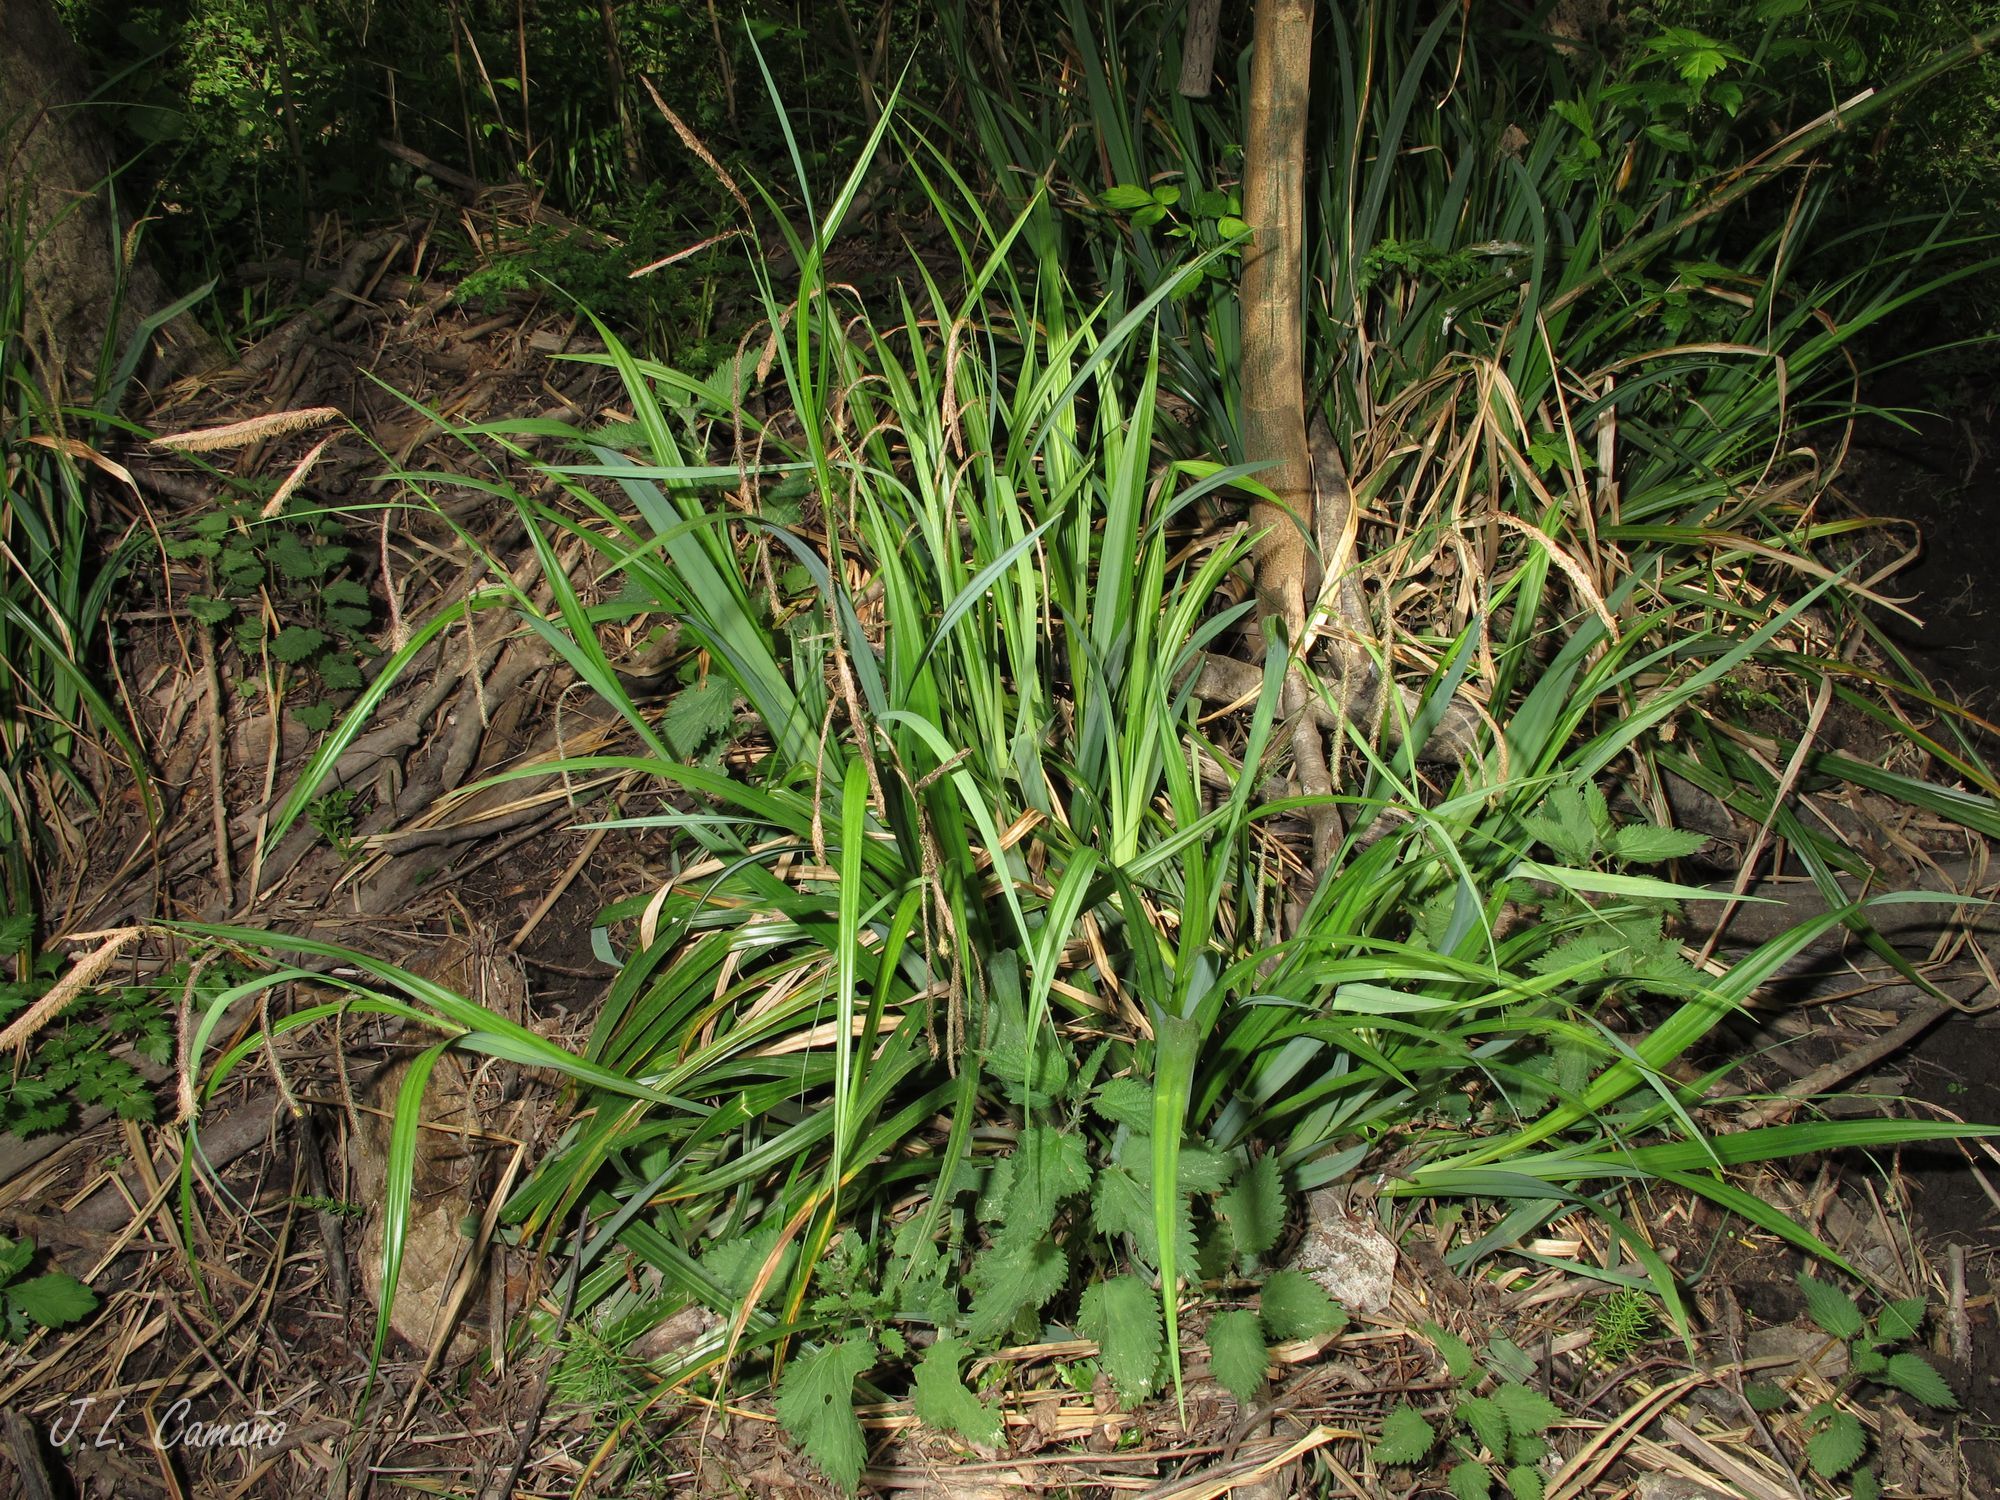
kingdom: Plantae
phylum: Tracheophyta
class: Liliopsida
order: Poales
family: Cyperaceae
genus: Carex
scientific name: Carex pendula
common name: Pendulous sedge
